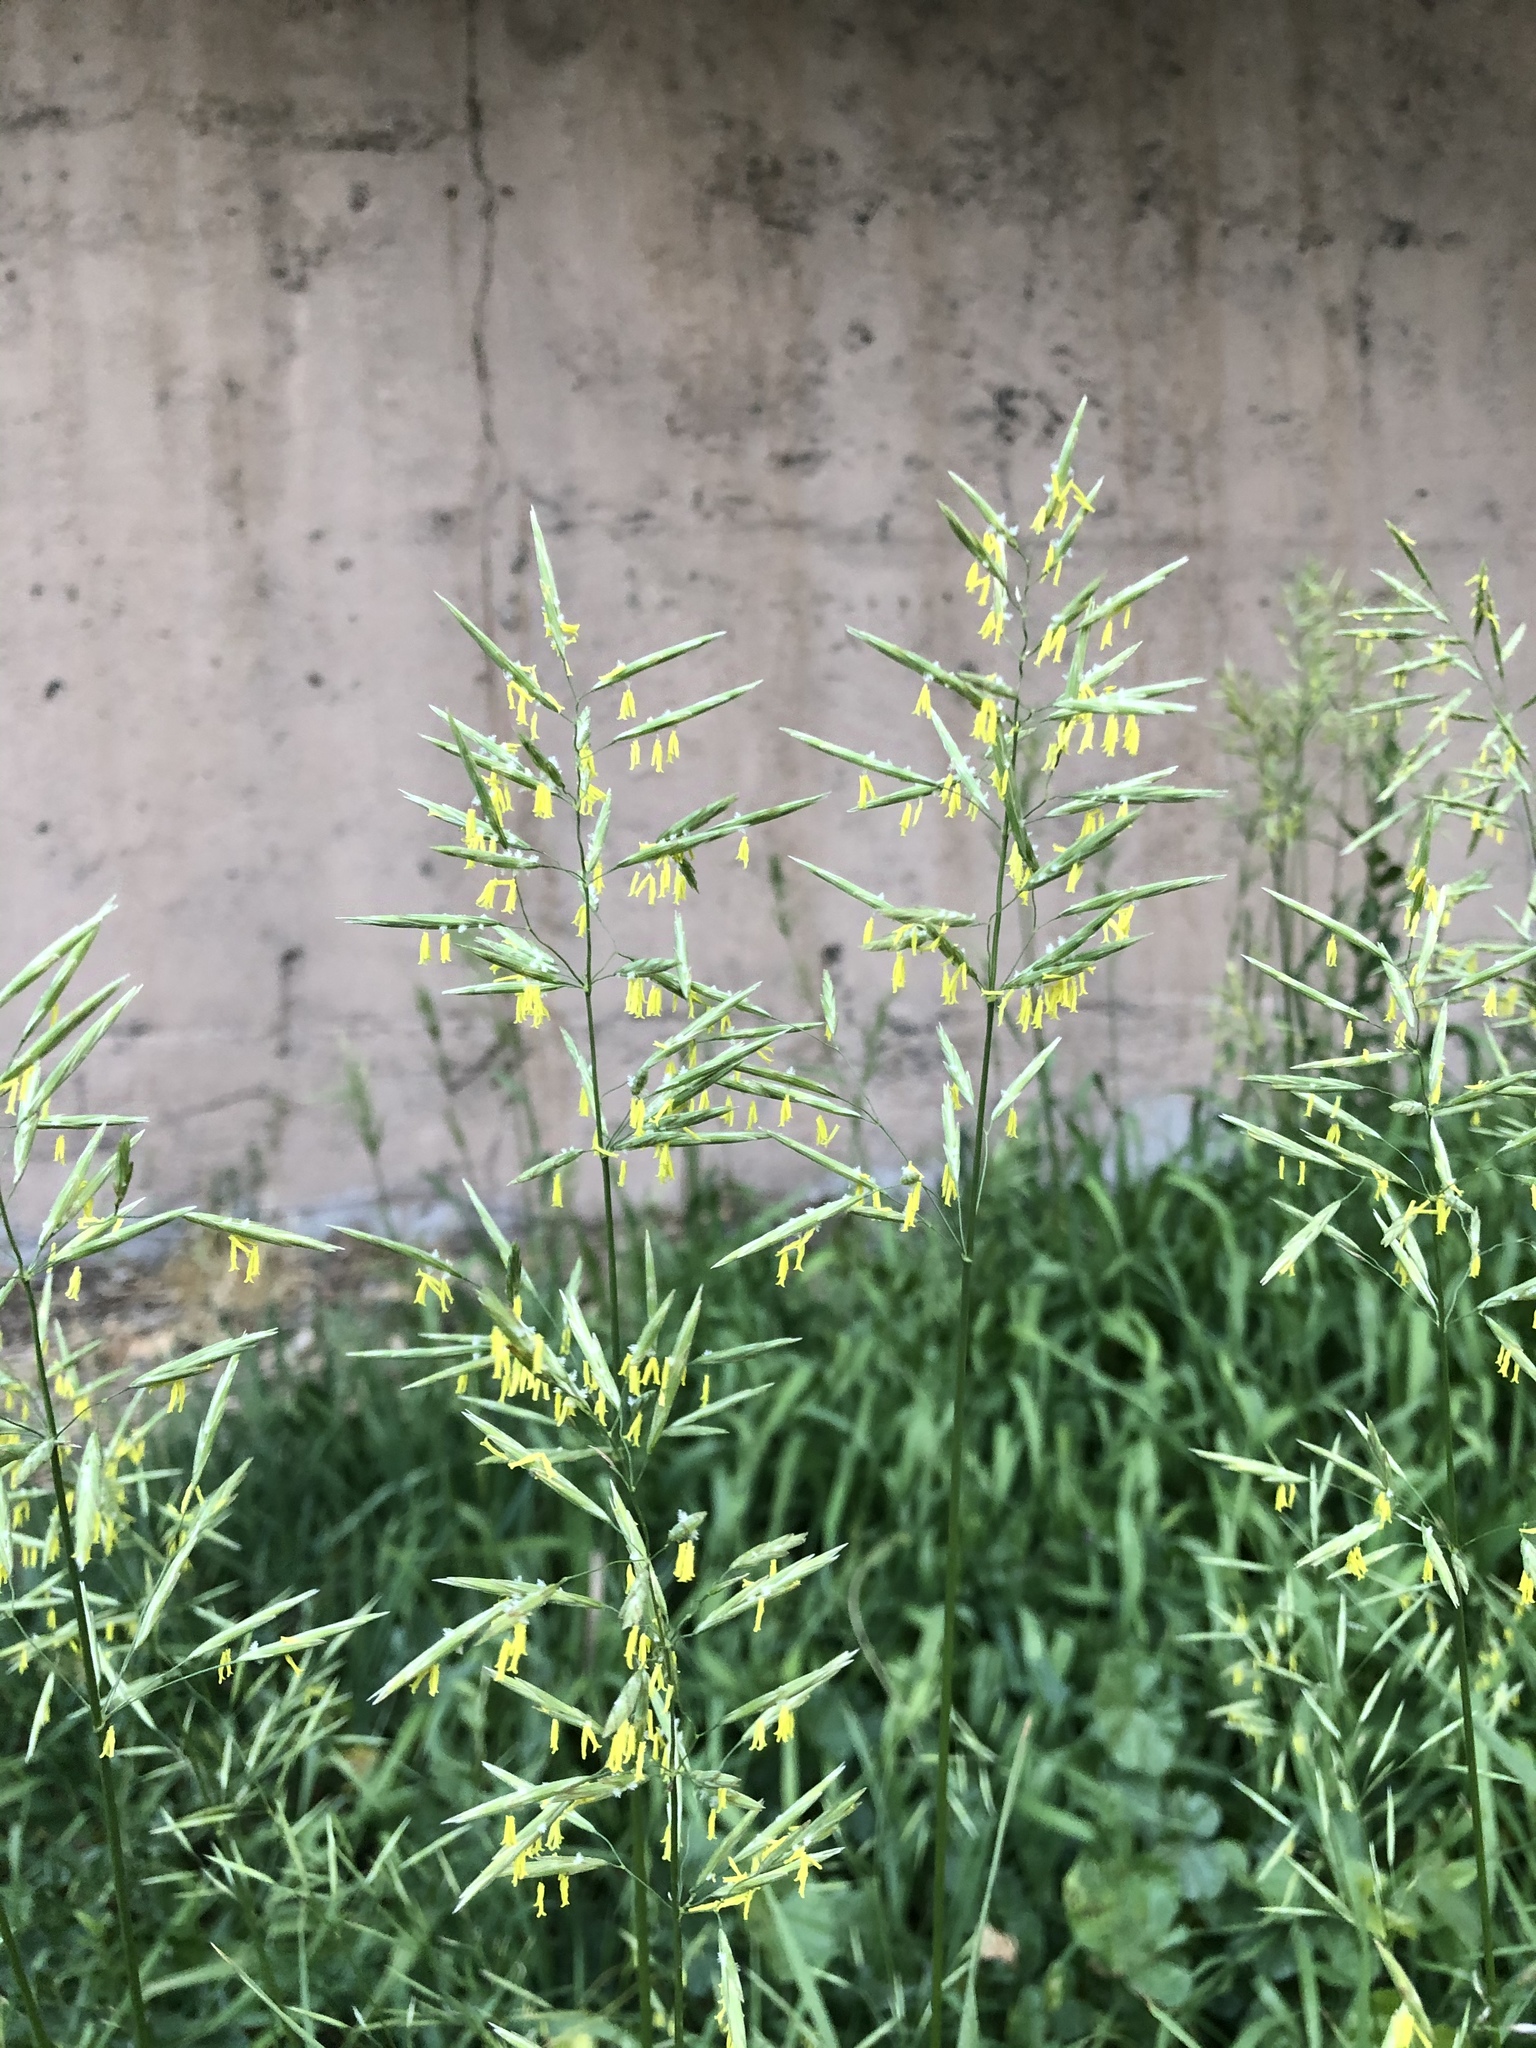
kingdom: Plantae
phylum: Tracheophyta
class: Liliopsida
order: Poales
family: Poaceae
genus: Bromus
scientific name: Bromus inermis
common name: Smooth brome
